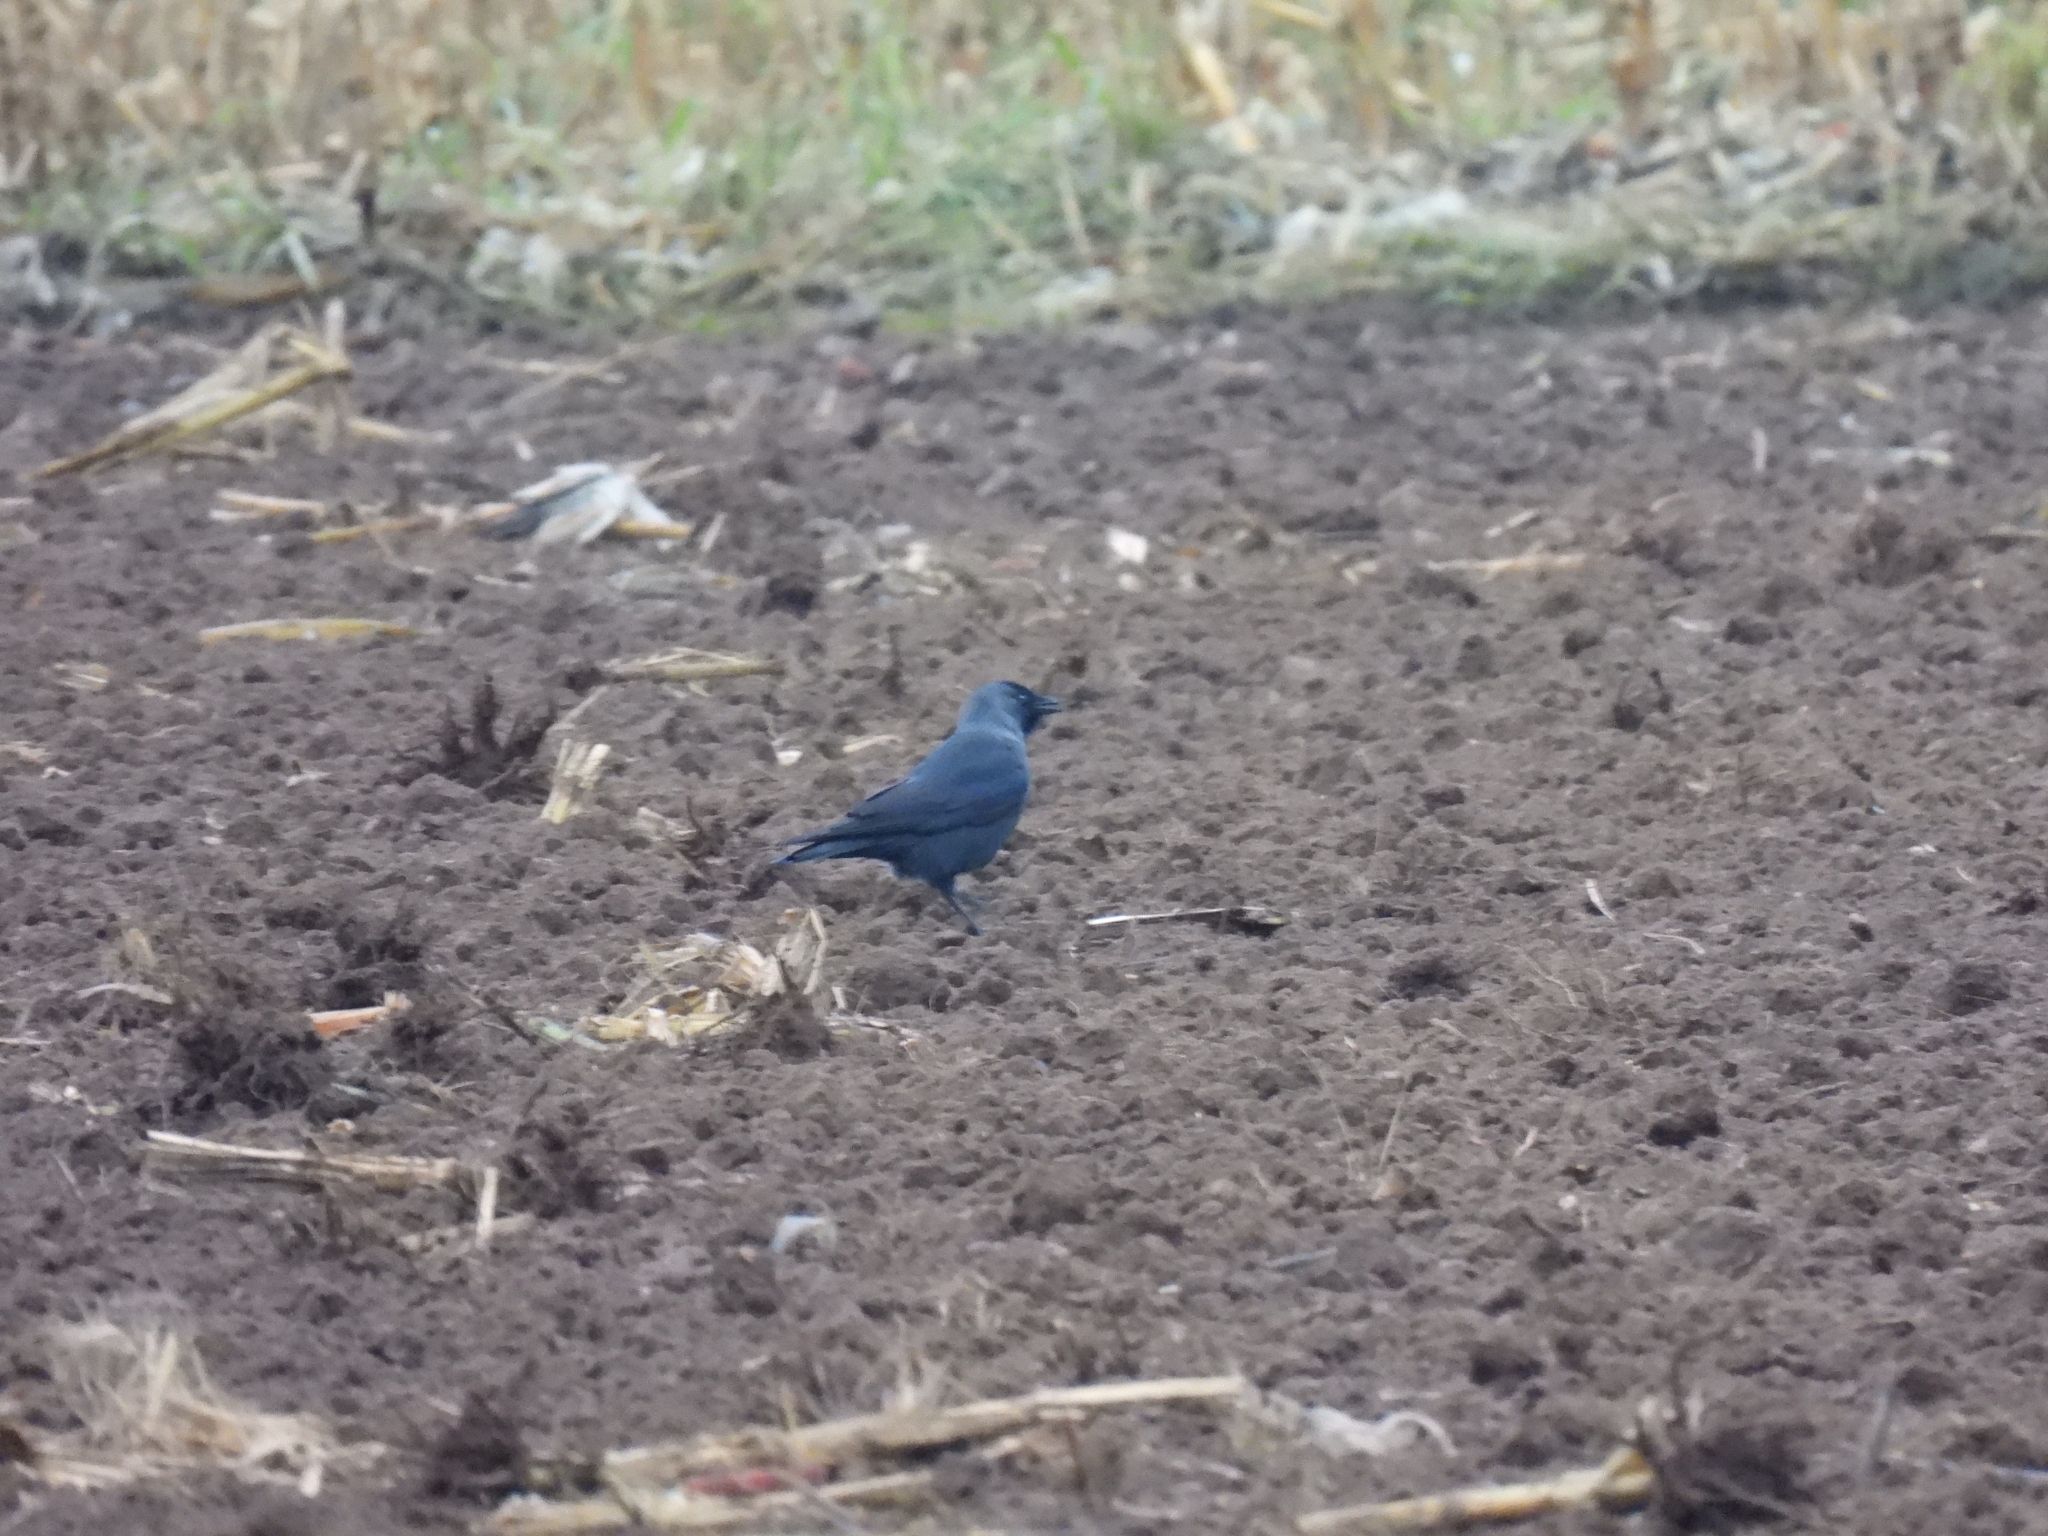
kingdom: Animalia
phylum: Chordata
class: Aves
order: Passeriformes
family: Corvidae
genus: Coloeus
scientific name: Coloeus monedula
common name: Western jackdaw
